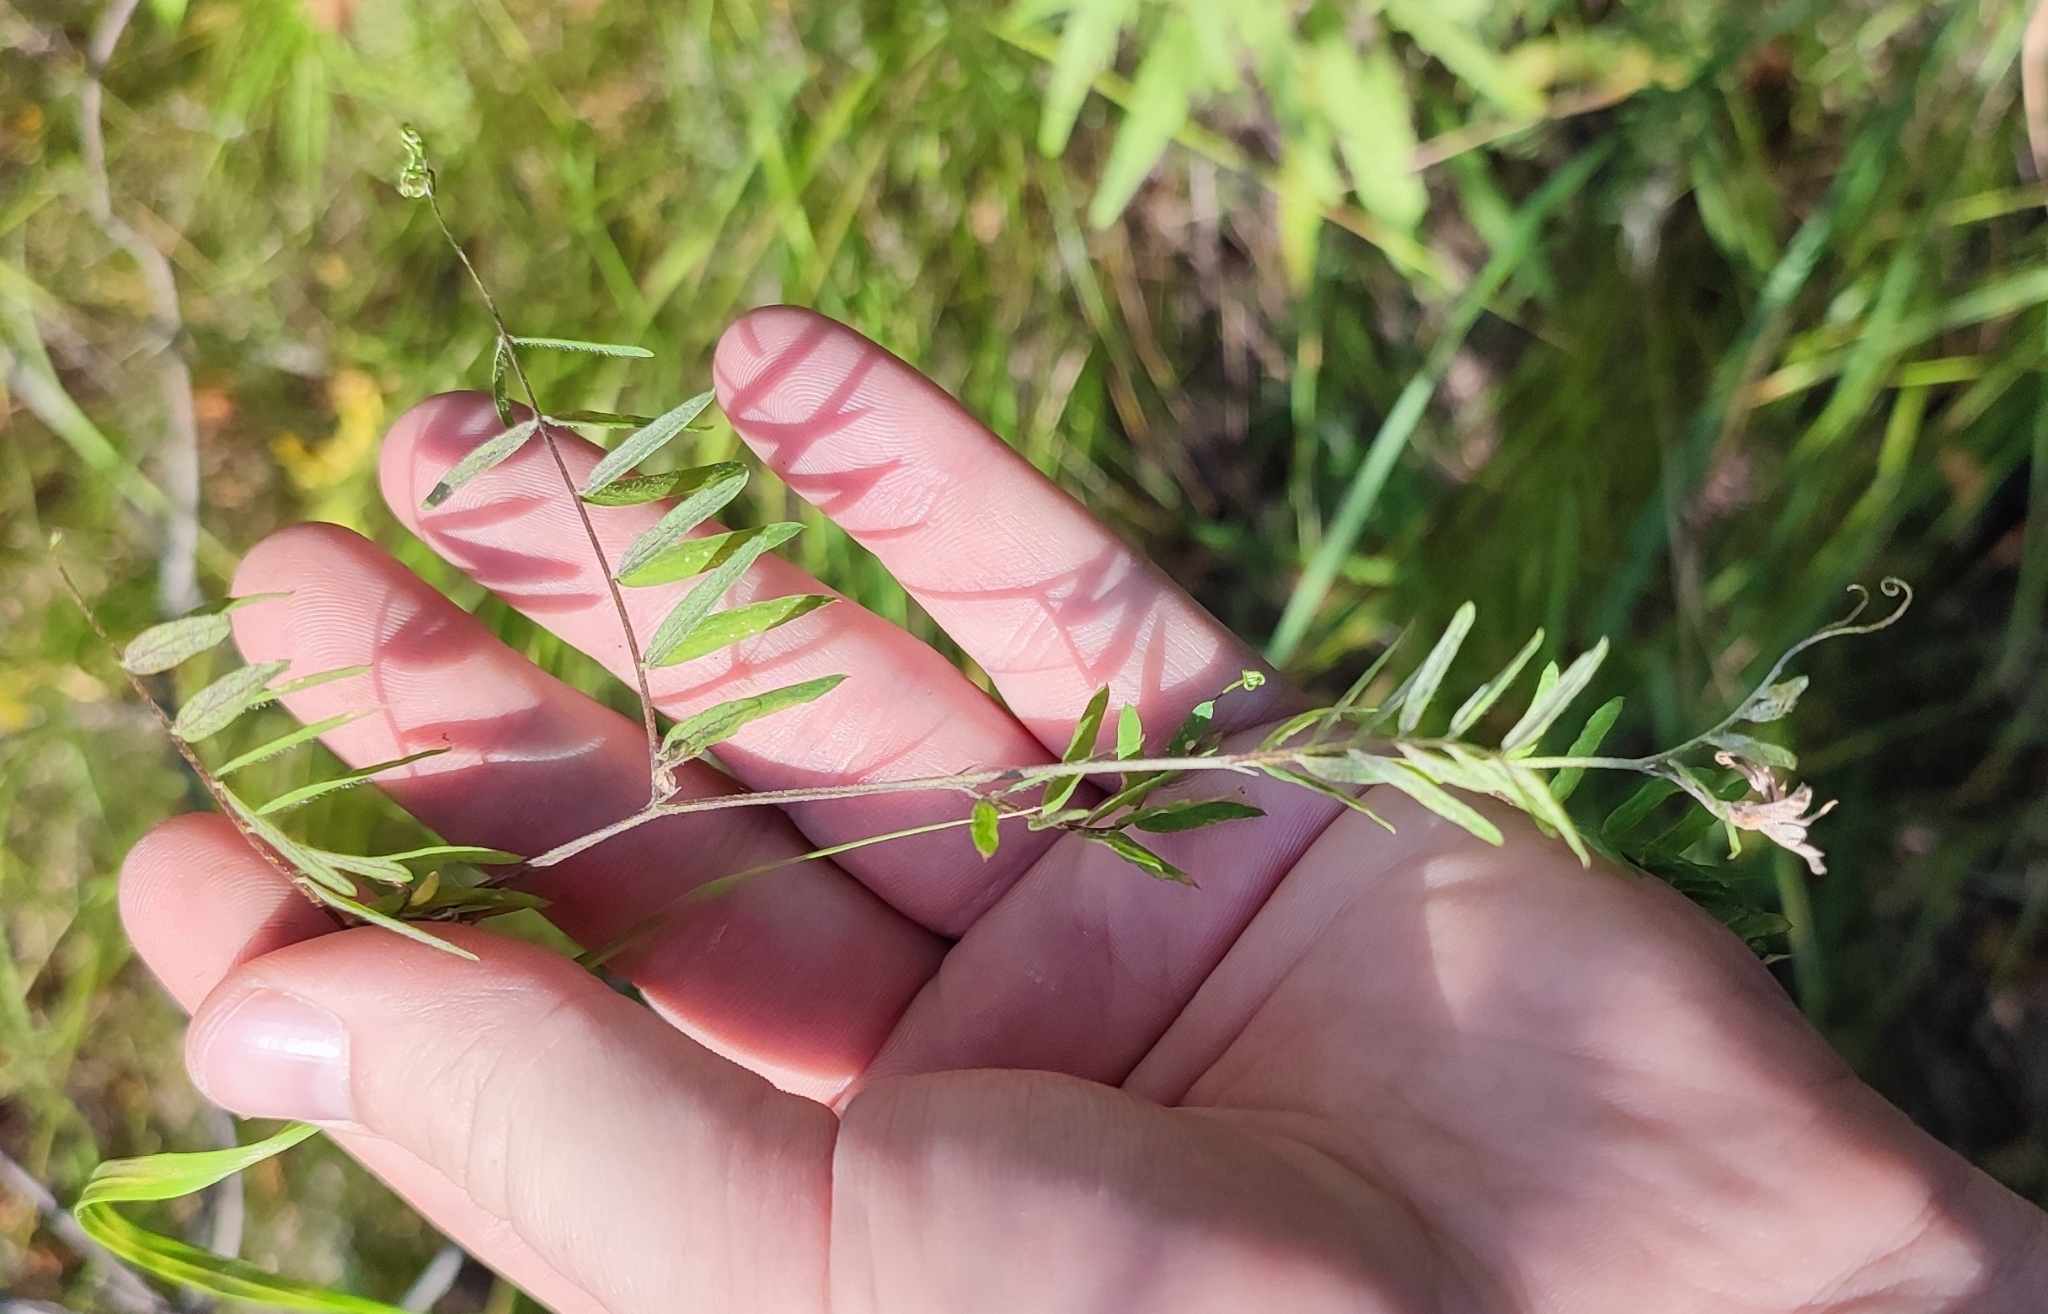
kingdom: Plantae
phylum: Tracheophyta
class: Magnoliopsida
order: Fabales
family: Fabaceae
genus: Vicia
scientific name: Vicia cracca
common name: Bird vetch
